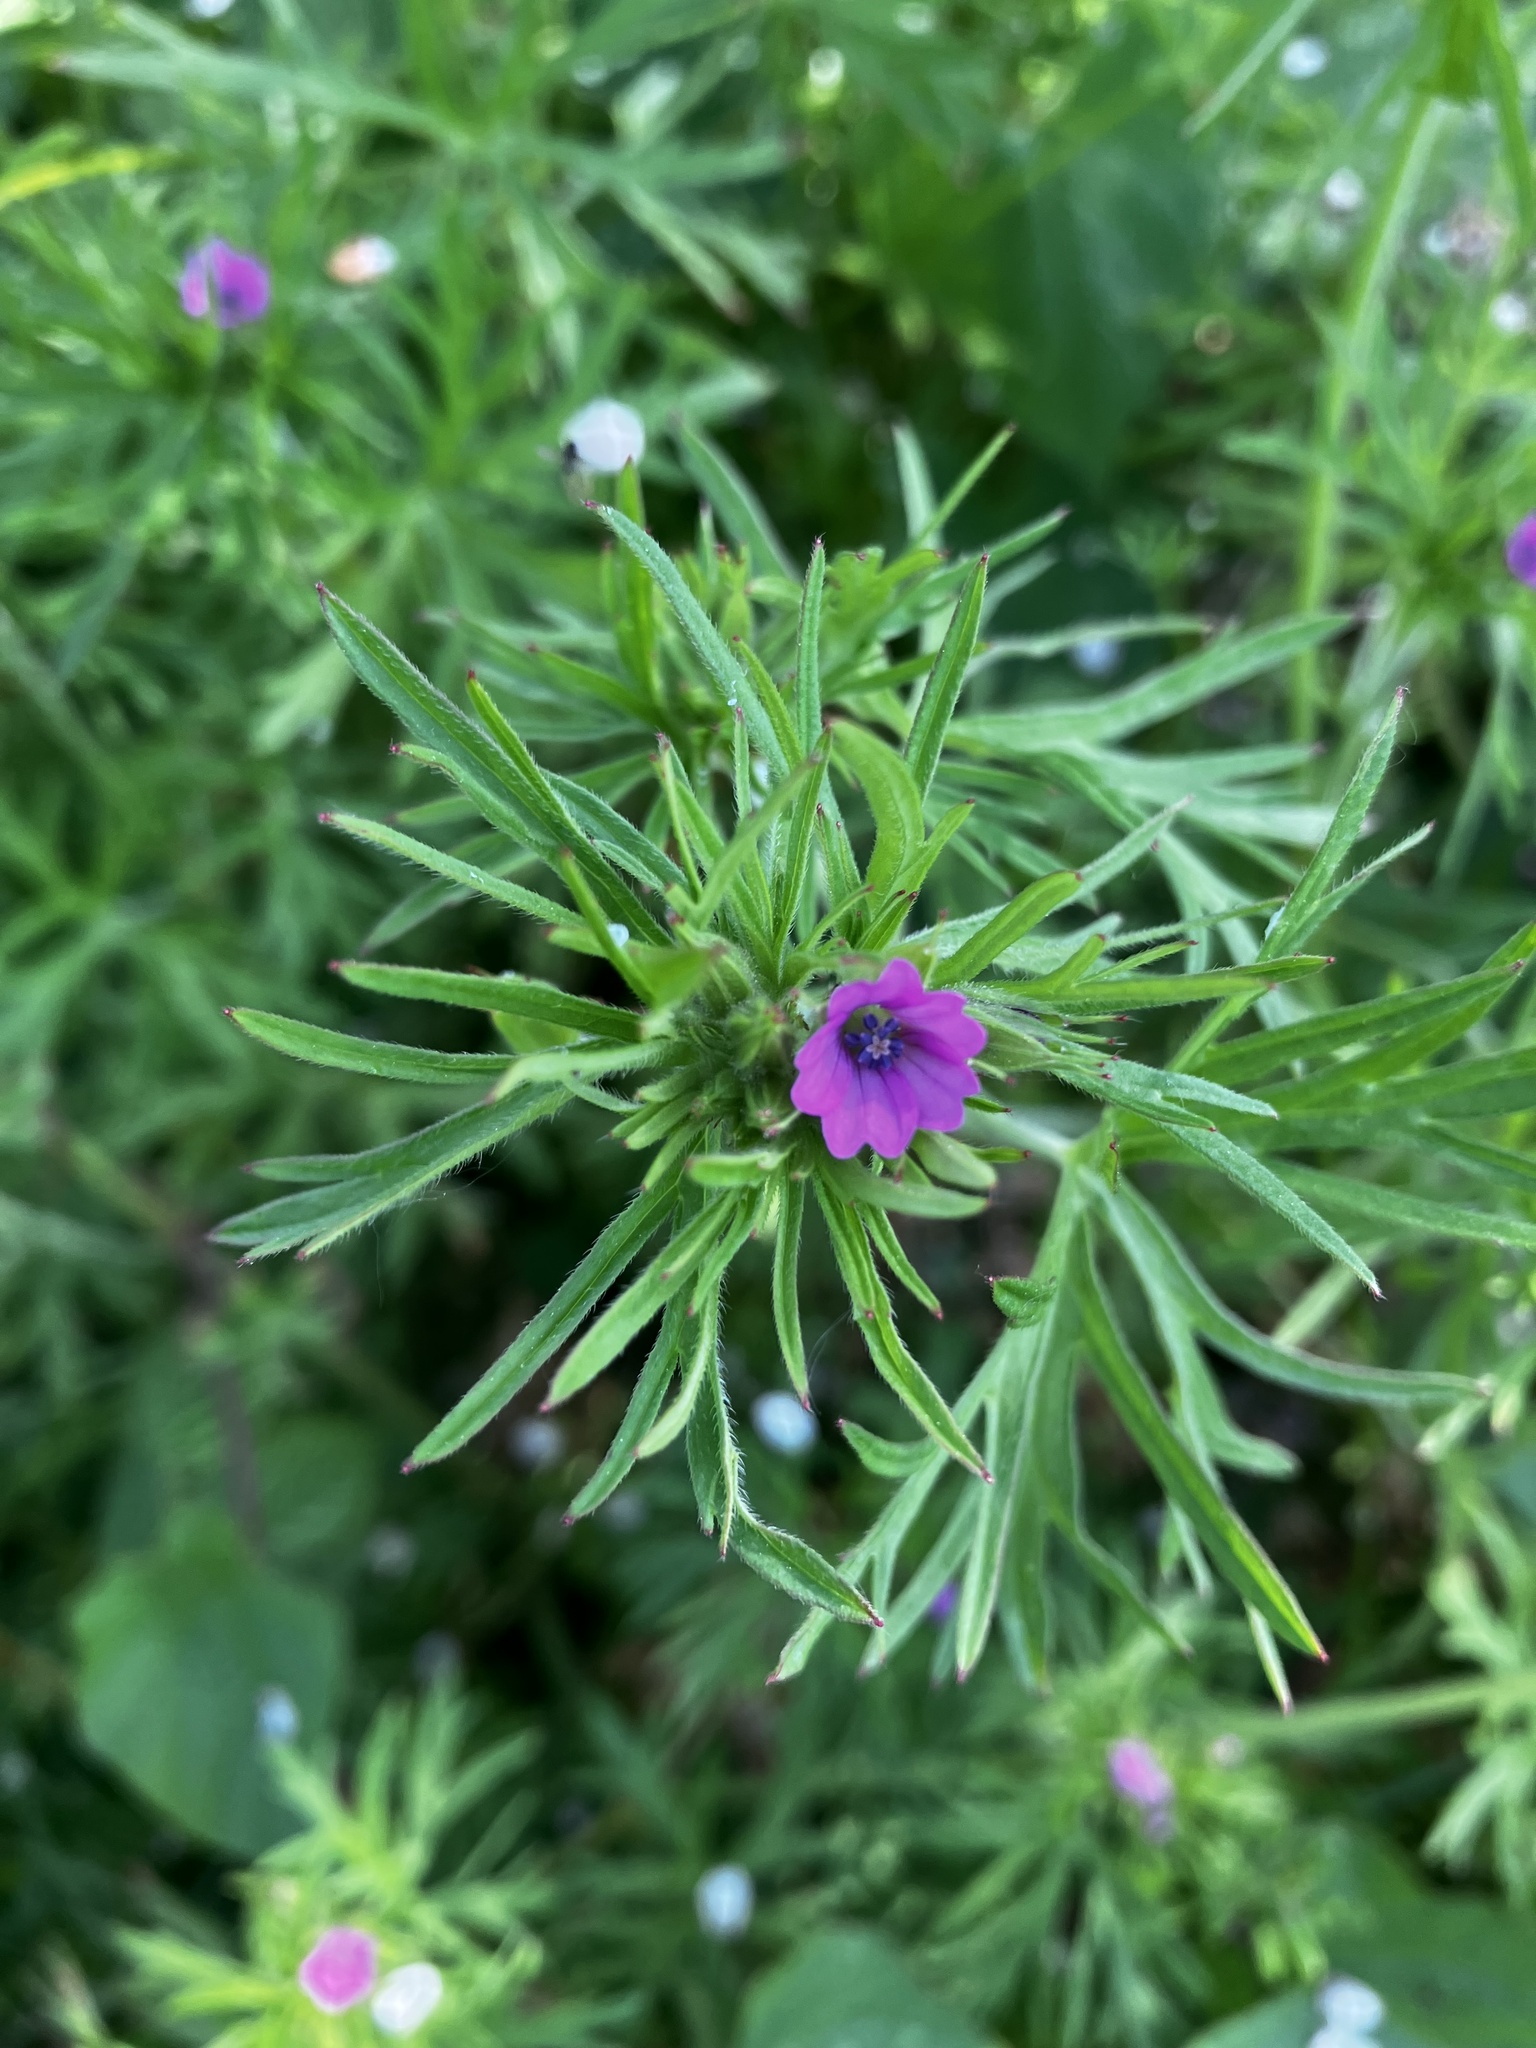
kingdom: Plantae
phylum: Tracheophyta
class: Magnoliopsida
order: Geraniales
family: Geraniaceae
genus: Geranium
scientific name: Geranium dissectum
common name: Cut-leaved crane's-bill
